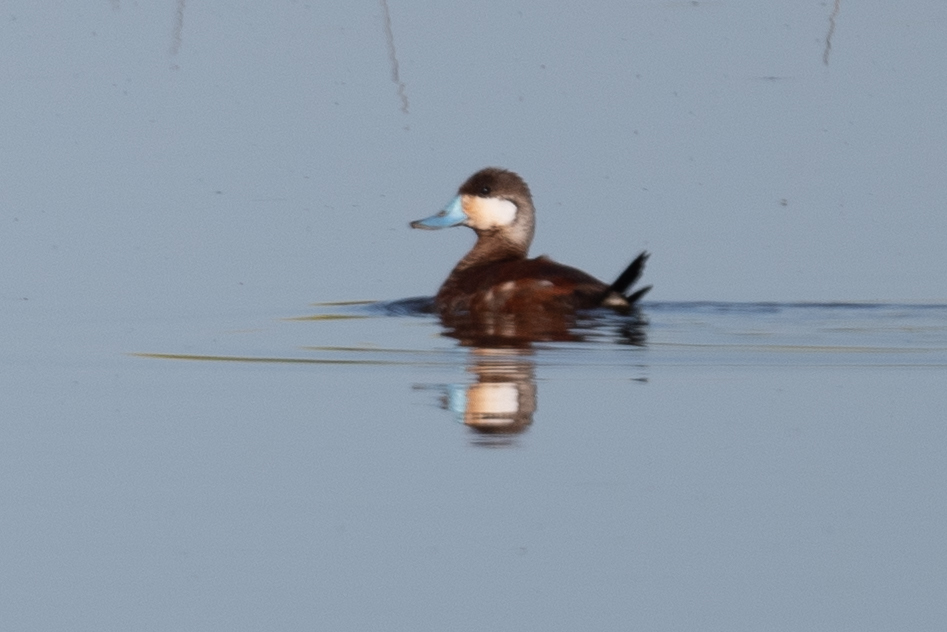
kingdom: Animalia
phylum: Chordata
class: Aves
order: Anseriformes
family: Anatidae
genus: Oxyura
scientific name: Oxyura jamaicensis
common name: Ruddy duck
